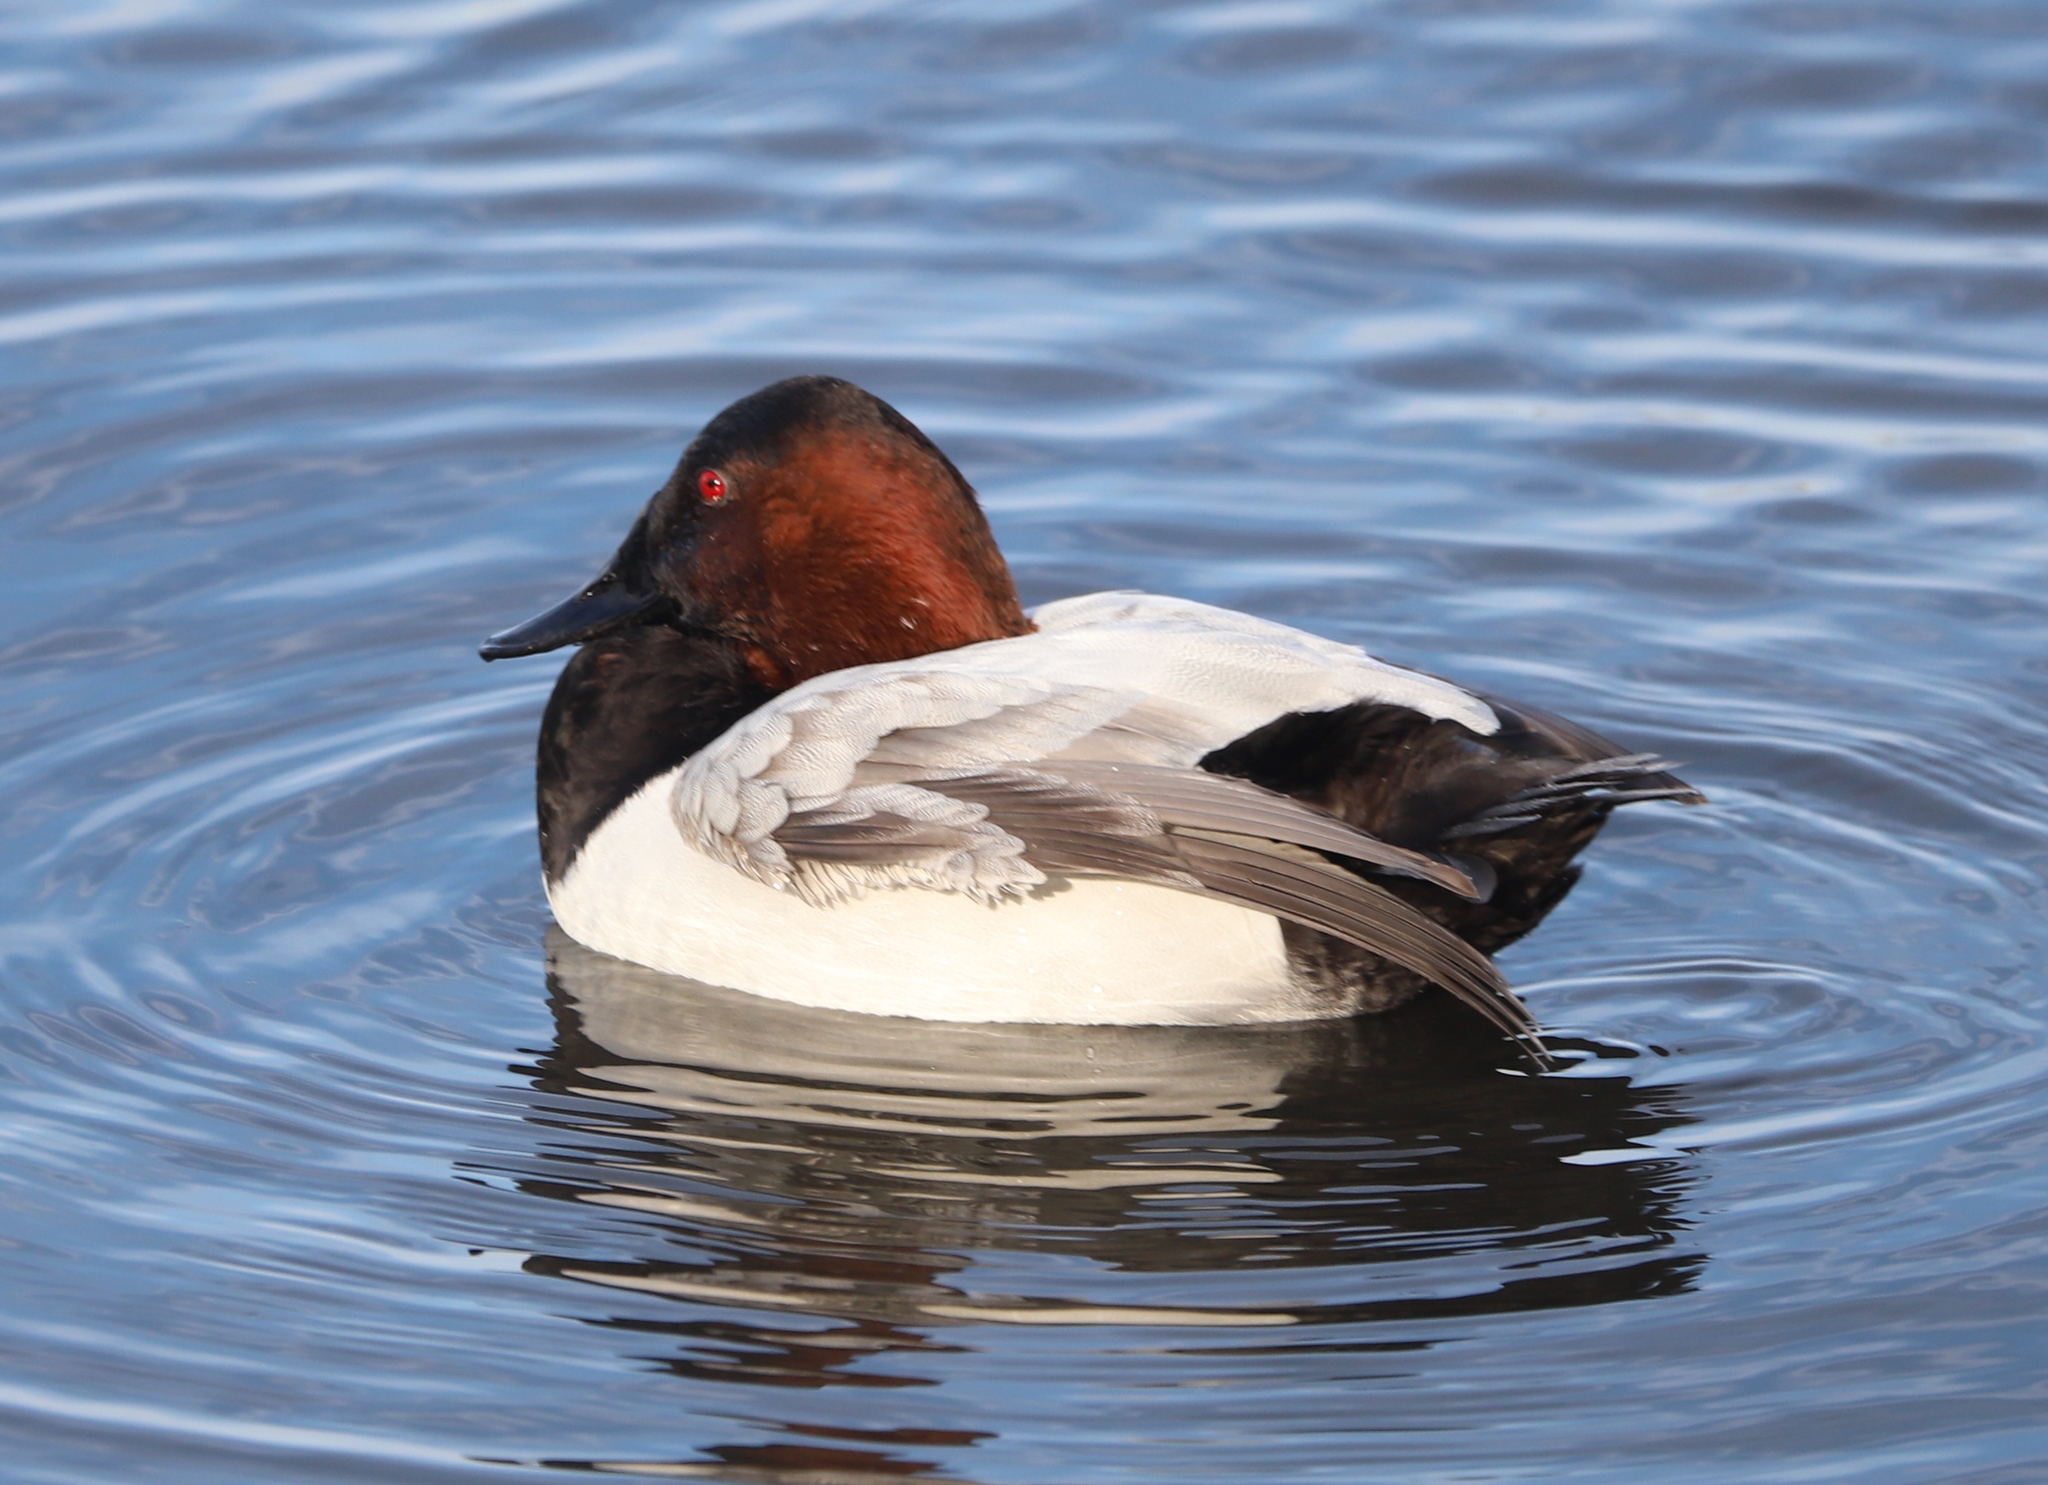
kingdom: Animalia
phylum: Chordata
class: Aves
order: Anseriformes
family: Anatidae
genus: Aythya
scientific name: Aythya valisineria
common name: Canvasback
